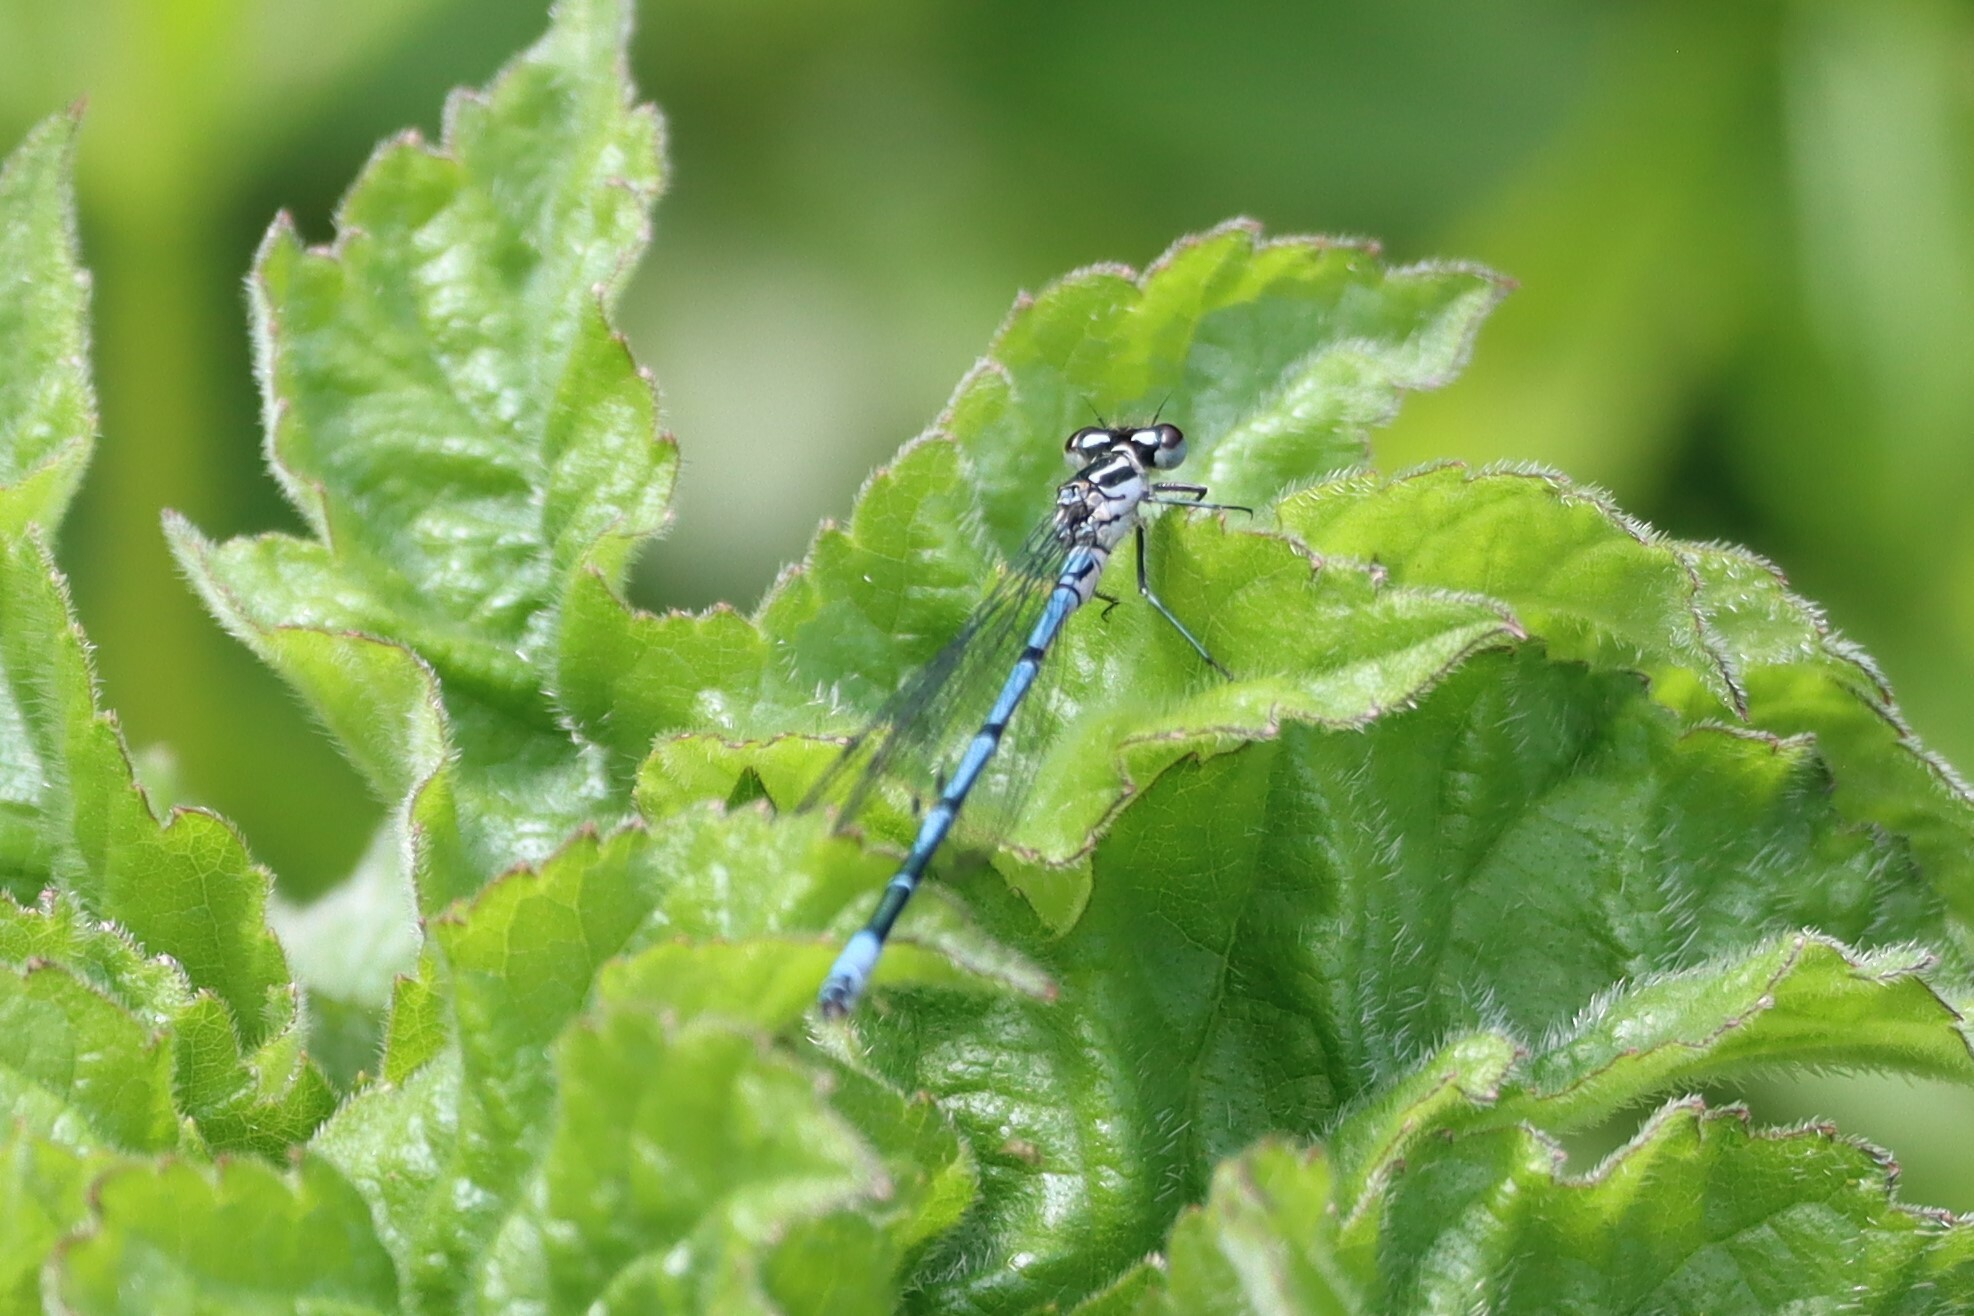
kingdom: Animalia
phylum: Arthropoda
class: Insecta
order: Odonata
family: Coenagrionidae
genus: Coenagrion
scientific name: Coenagrion puella
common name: Azure damselfly
